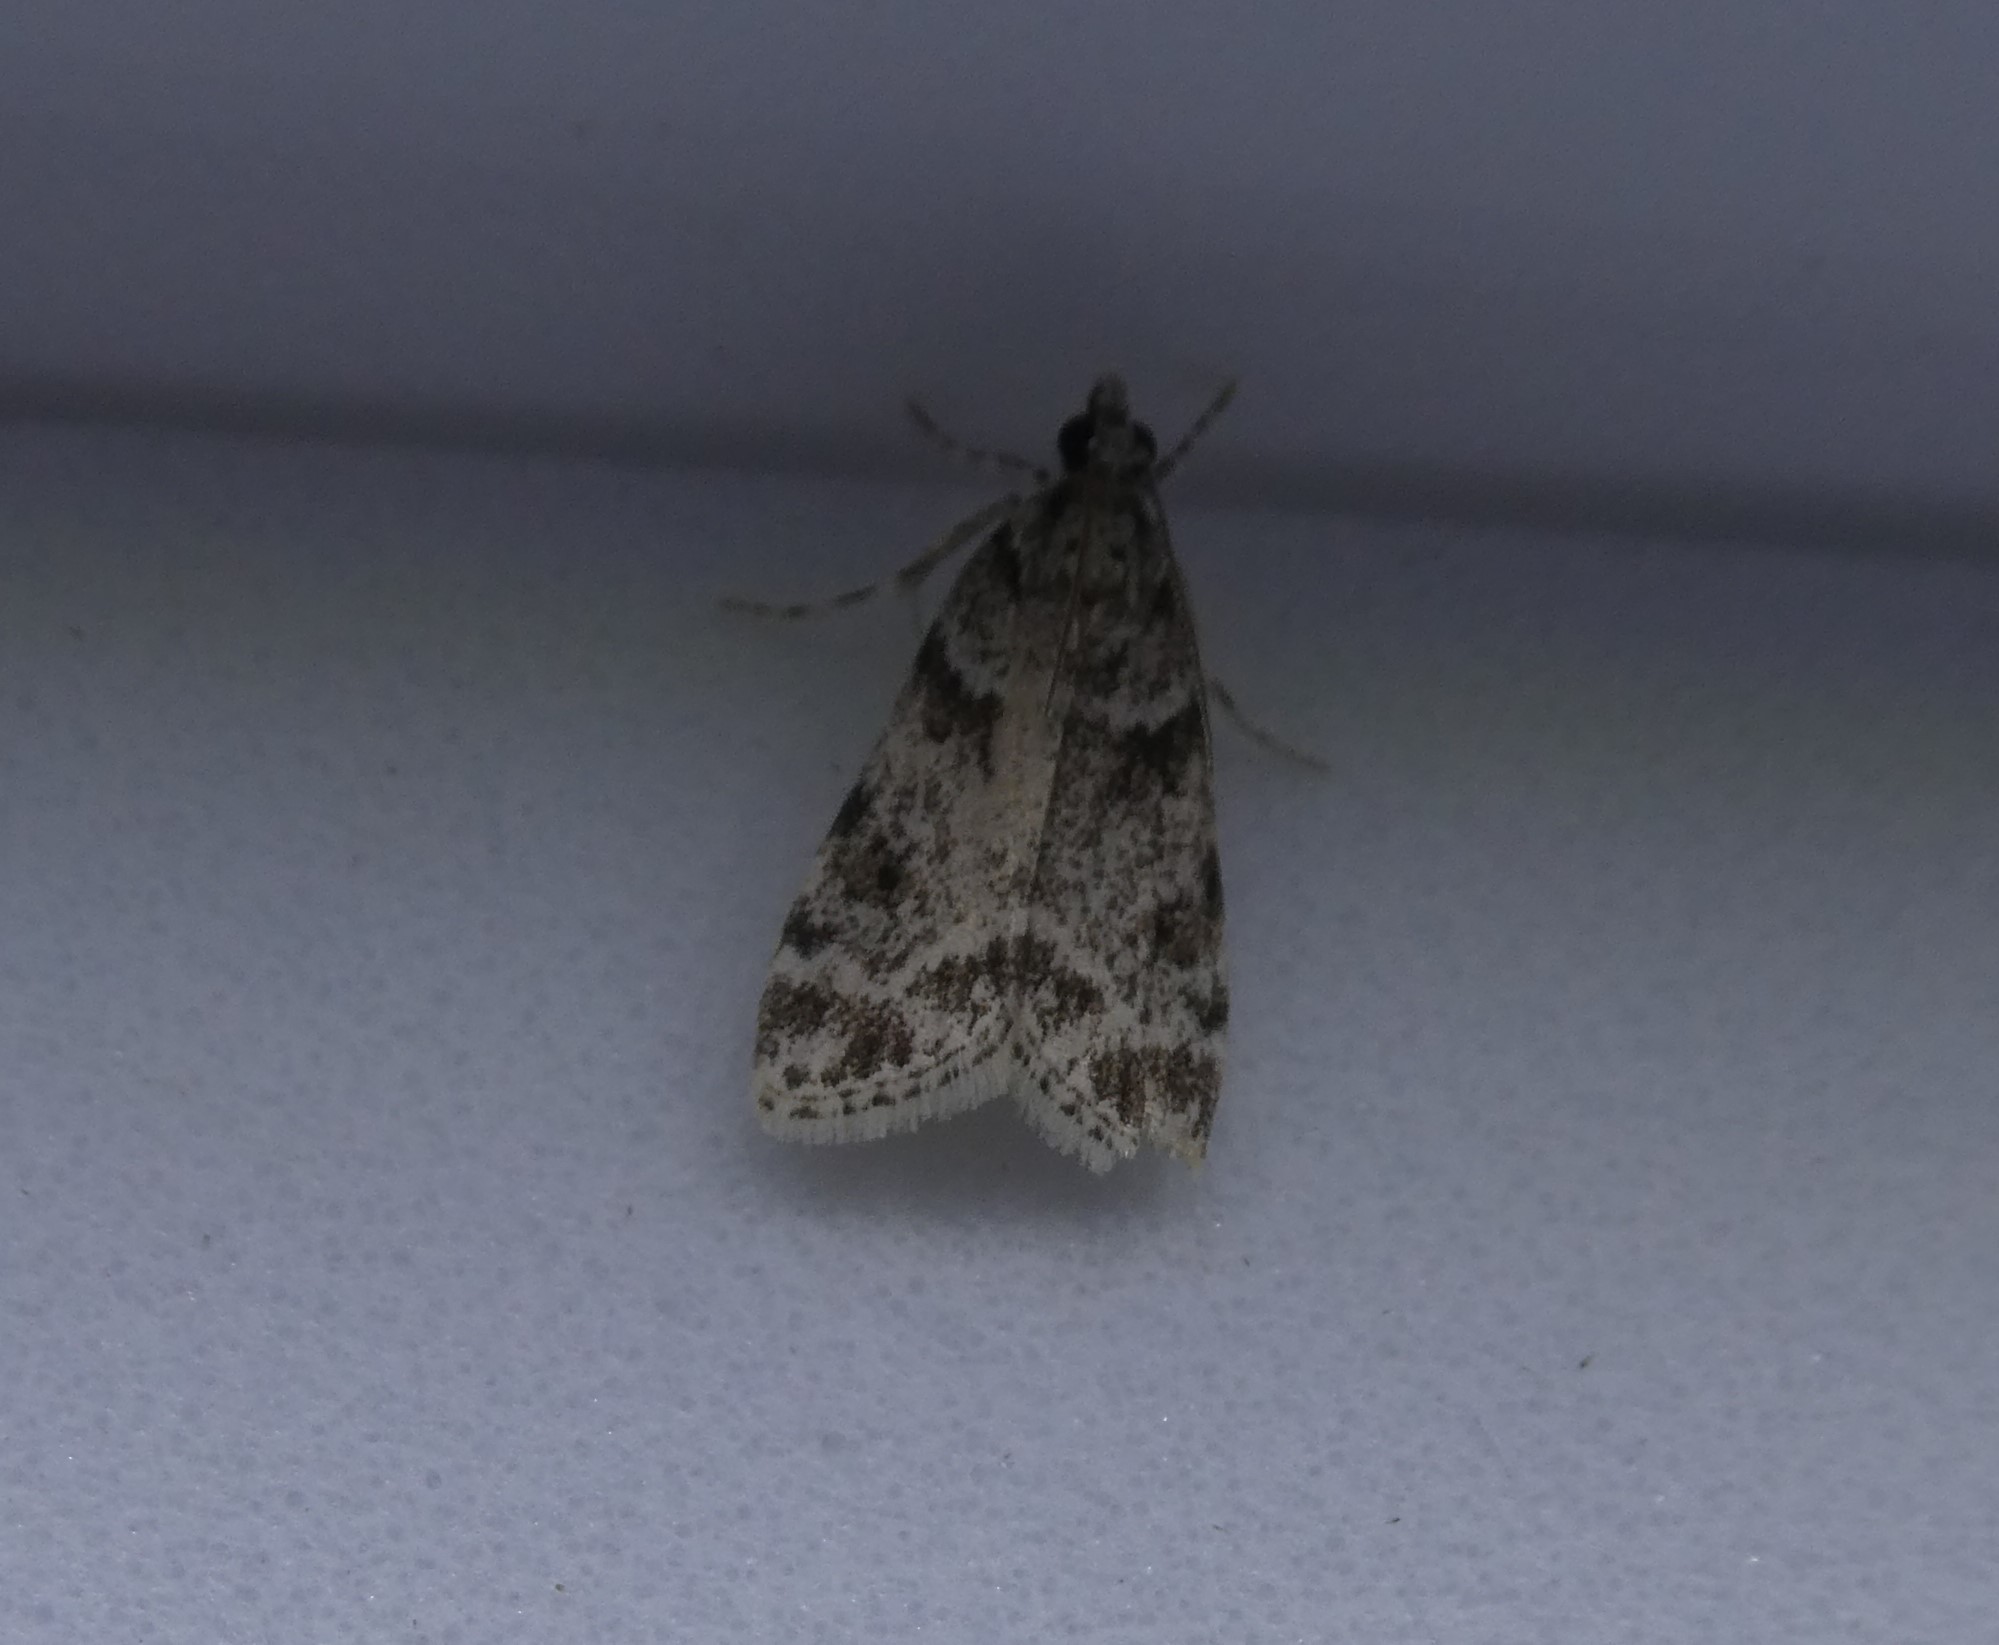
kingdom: Animalia
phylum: Arthropoda
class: Insecta
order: Lepidoptera
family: Crambidae
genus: Scoparia
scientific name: Scoparia biplagialis
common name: Double-striped scoparia moth
